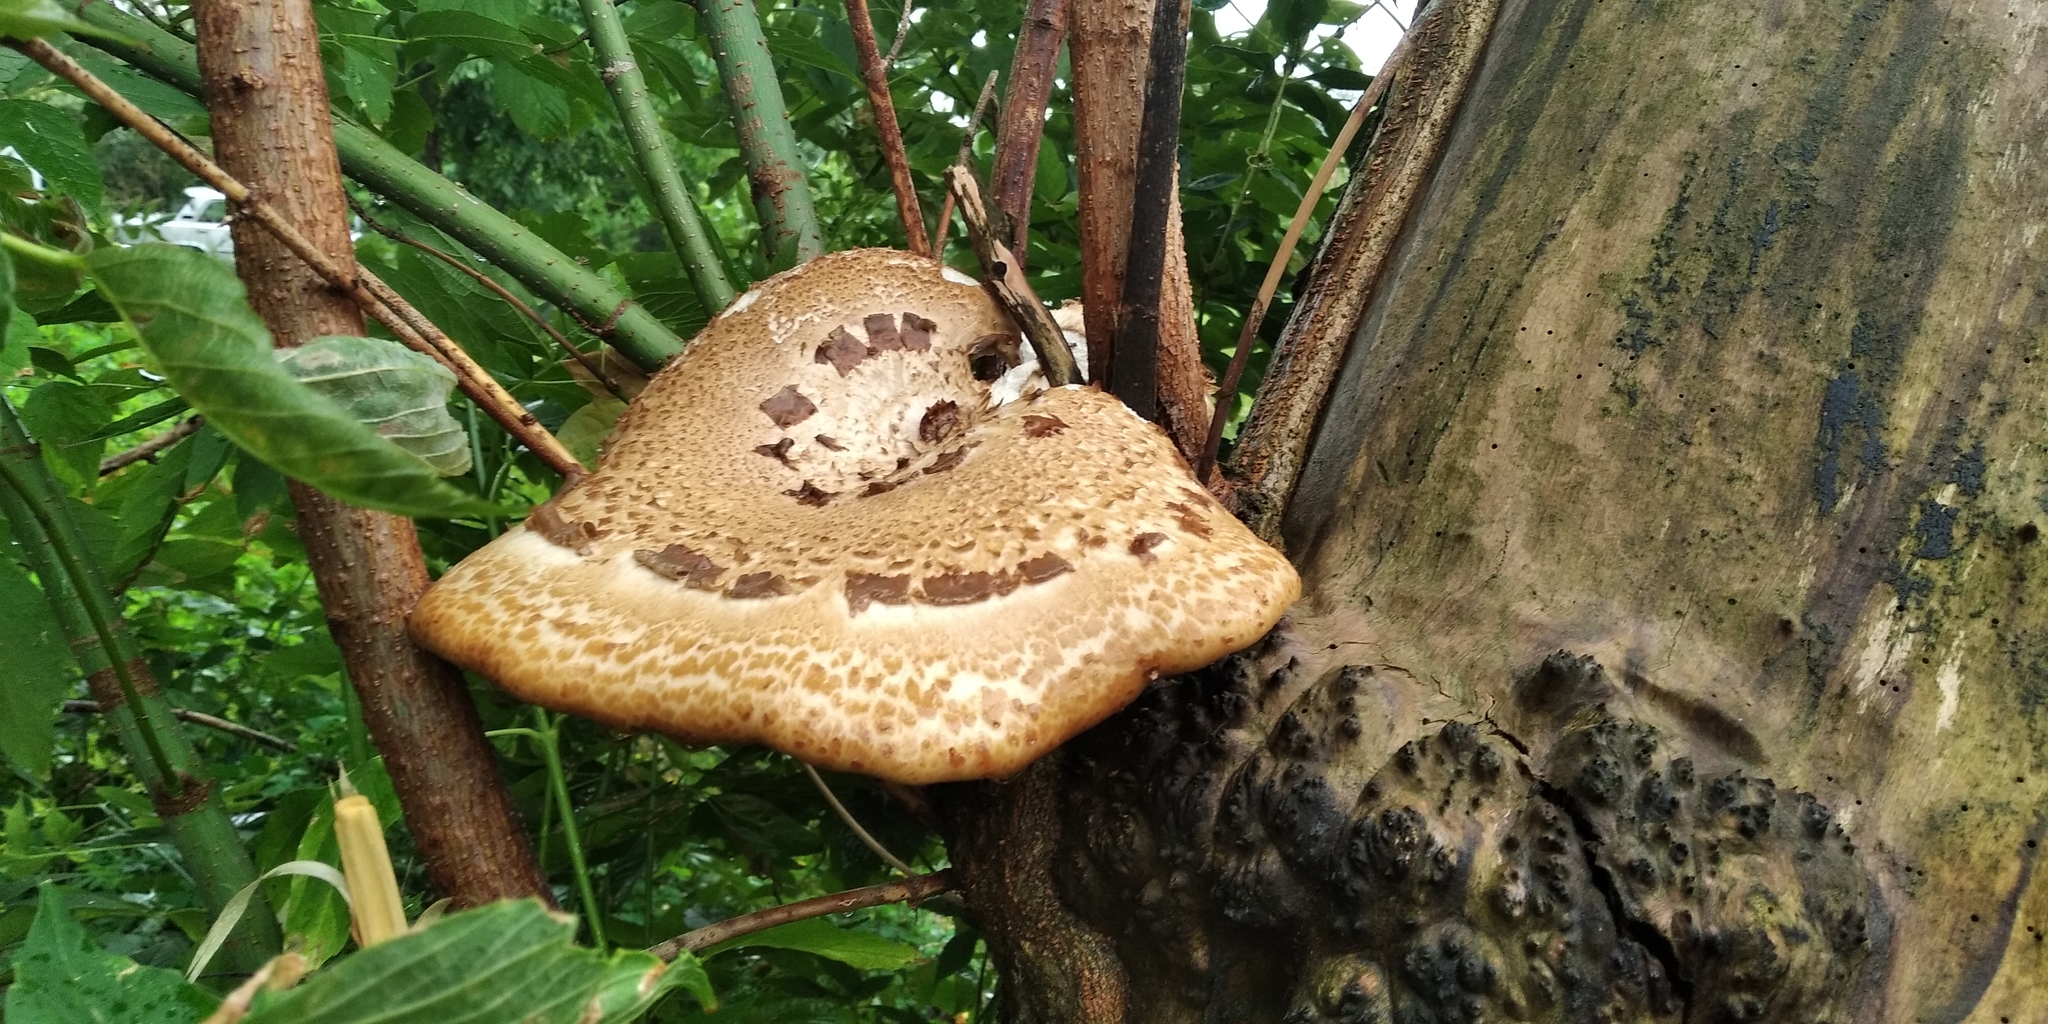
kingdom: Fungi
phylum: Basidiomycota
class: Agaricomycetes
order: Polyporales
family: Polyporaceae
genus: Cerioporus
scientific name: Cerioporus squamosus
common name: Dryad's saddle
